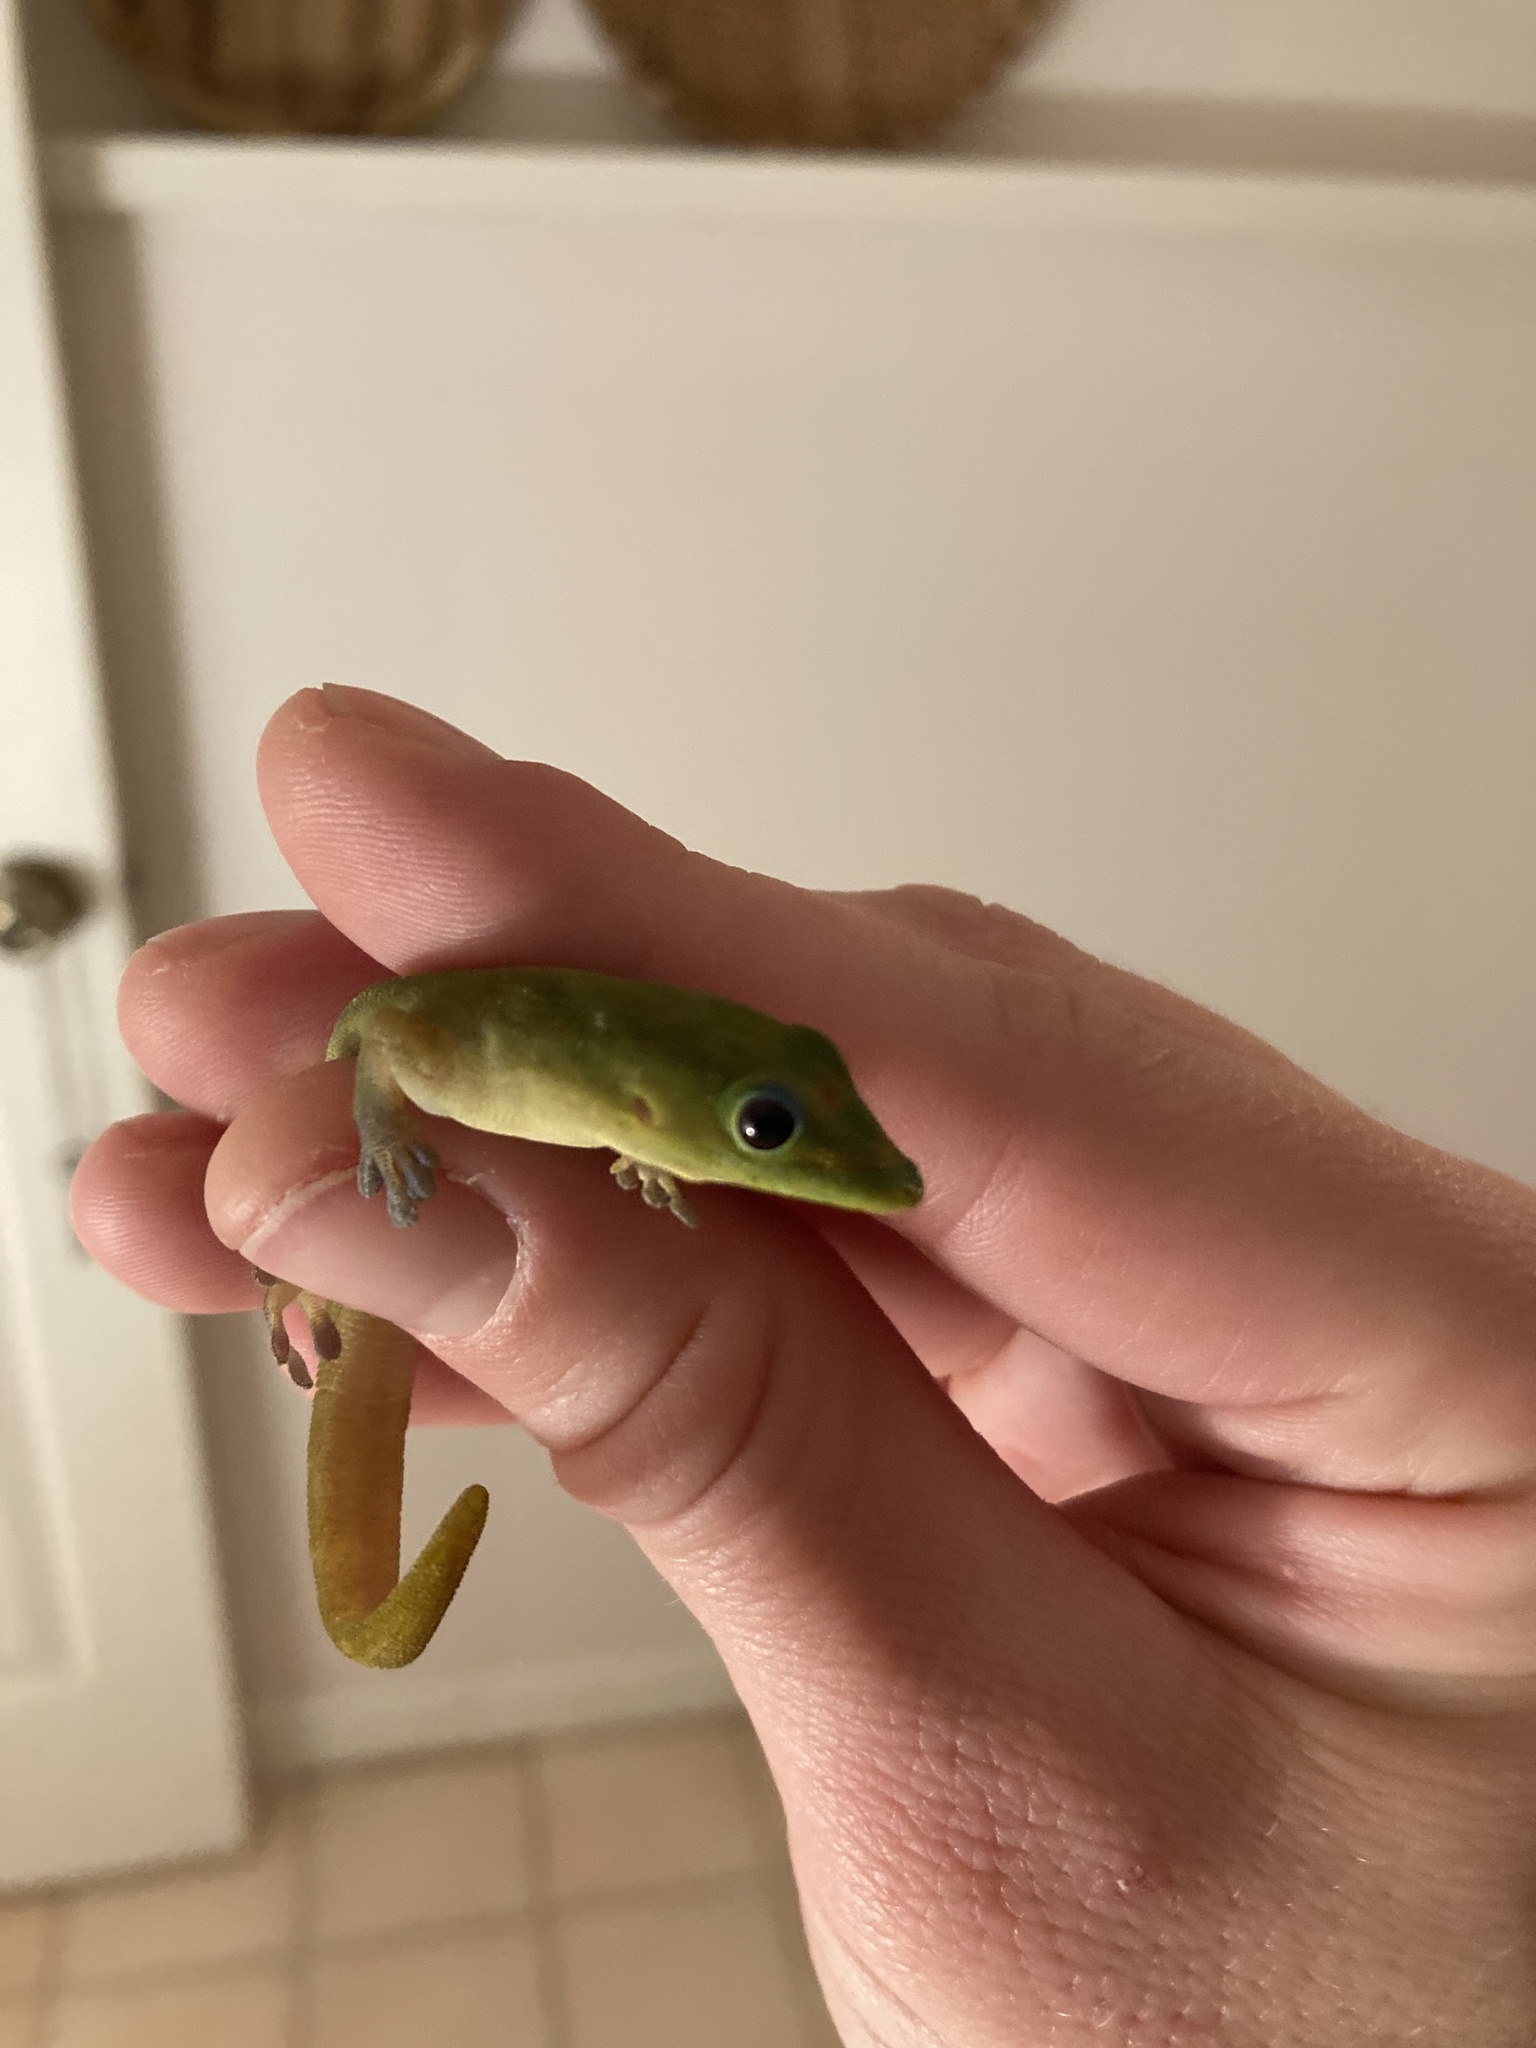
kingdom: Animalia
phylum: Chordata
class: Squamata
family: Gekkonidae
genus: Phelsuma
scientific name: Phelsuma laticauda
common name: Gold dust day gecko
